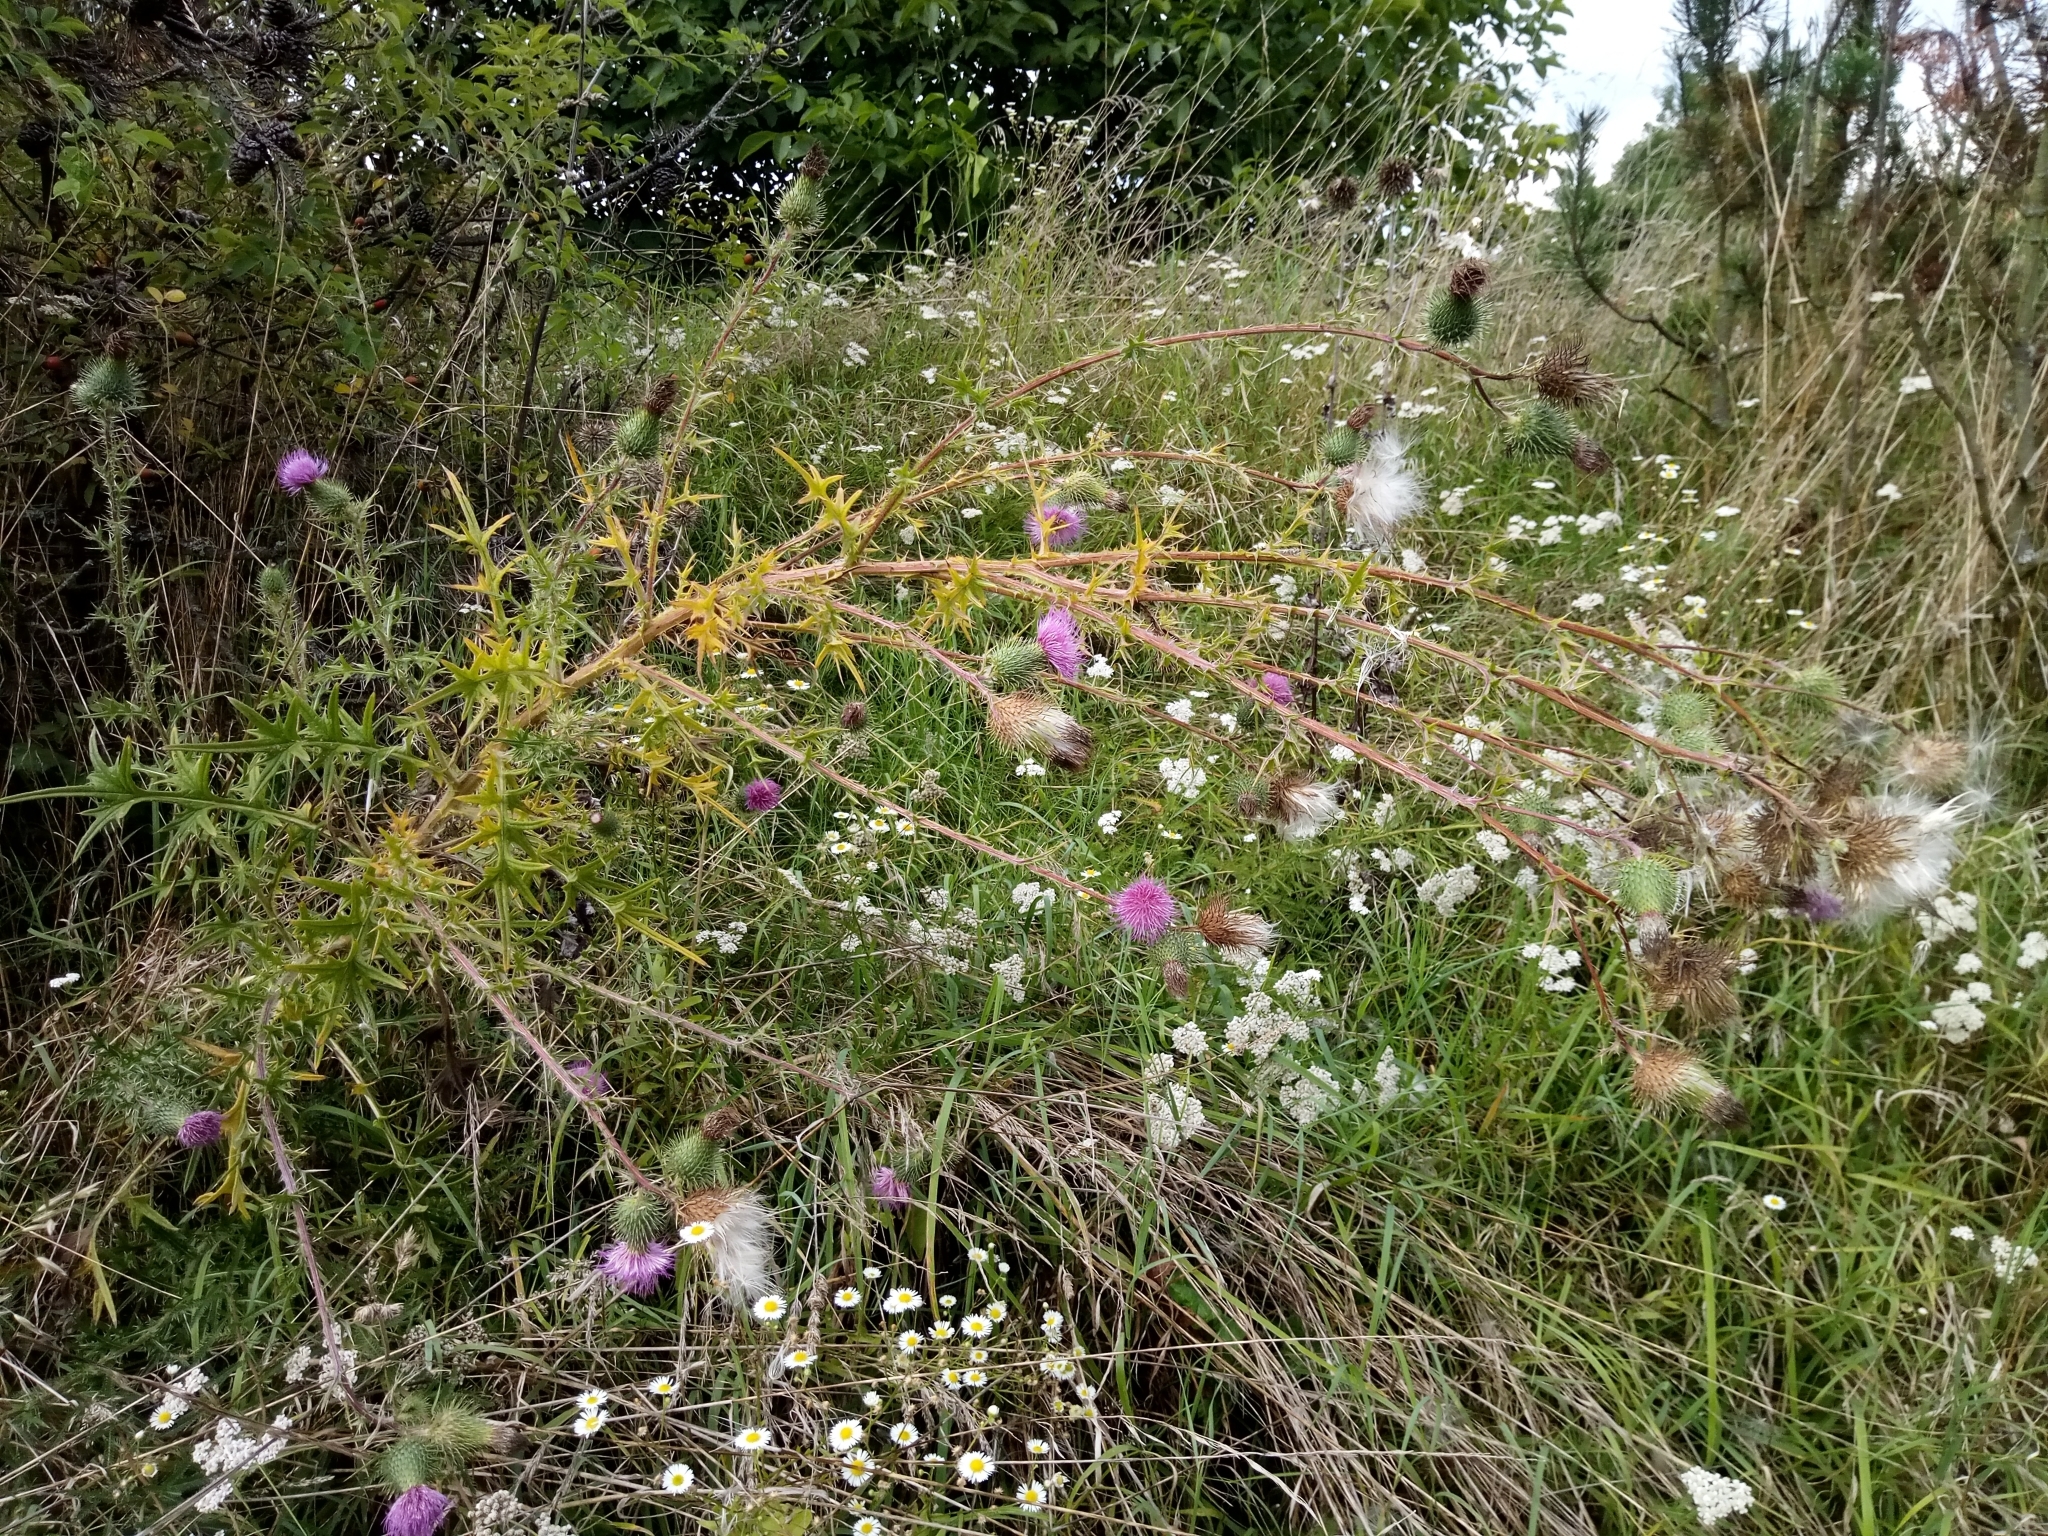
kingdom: Plantae
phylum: Tracheophyta
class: Magnoliopsida
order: Asterales
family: Asteraceae
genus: Cirsium
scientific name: Cirsium vulgare
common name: Bull thistle
